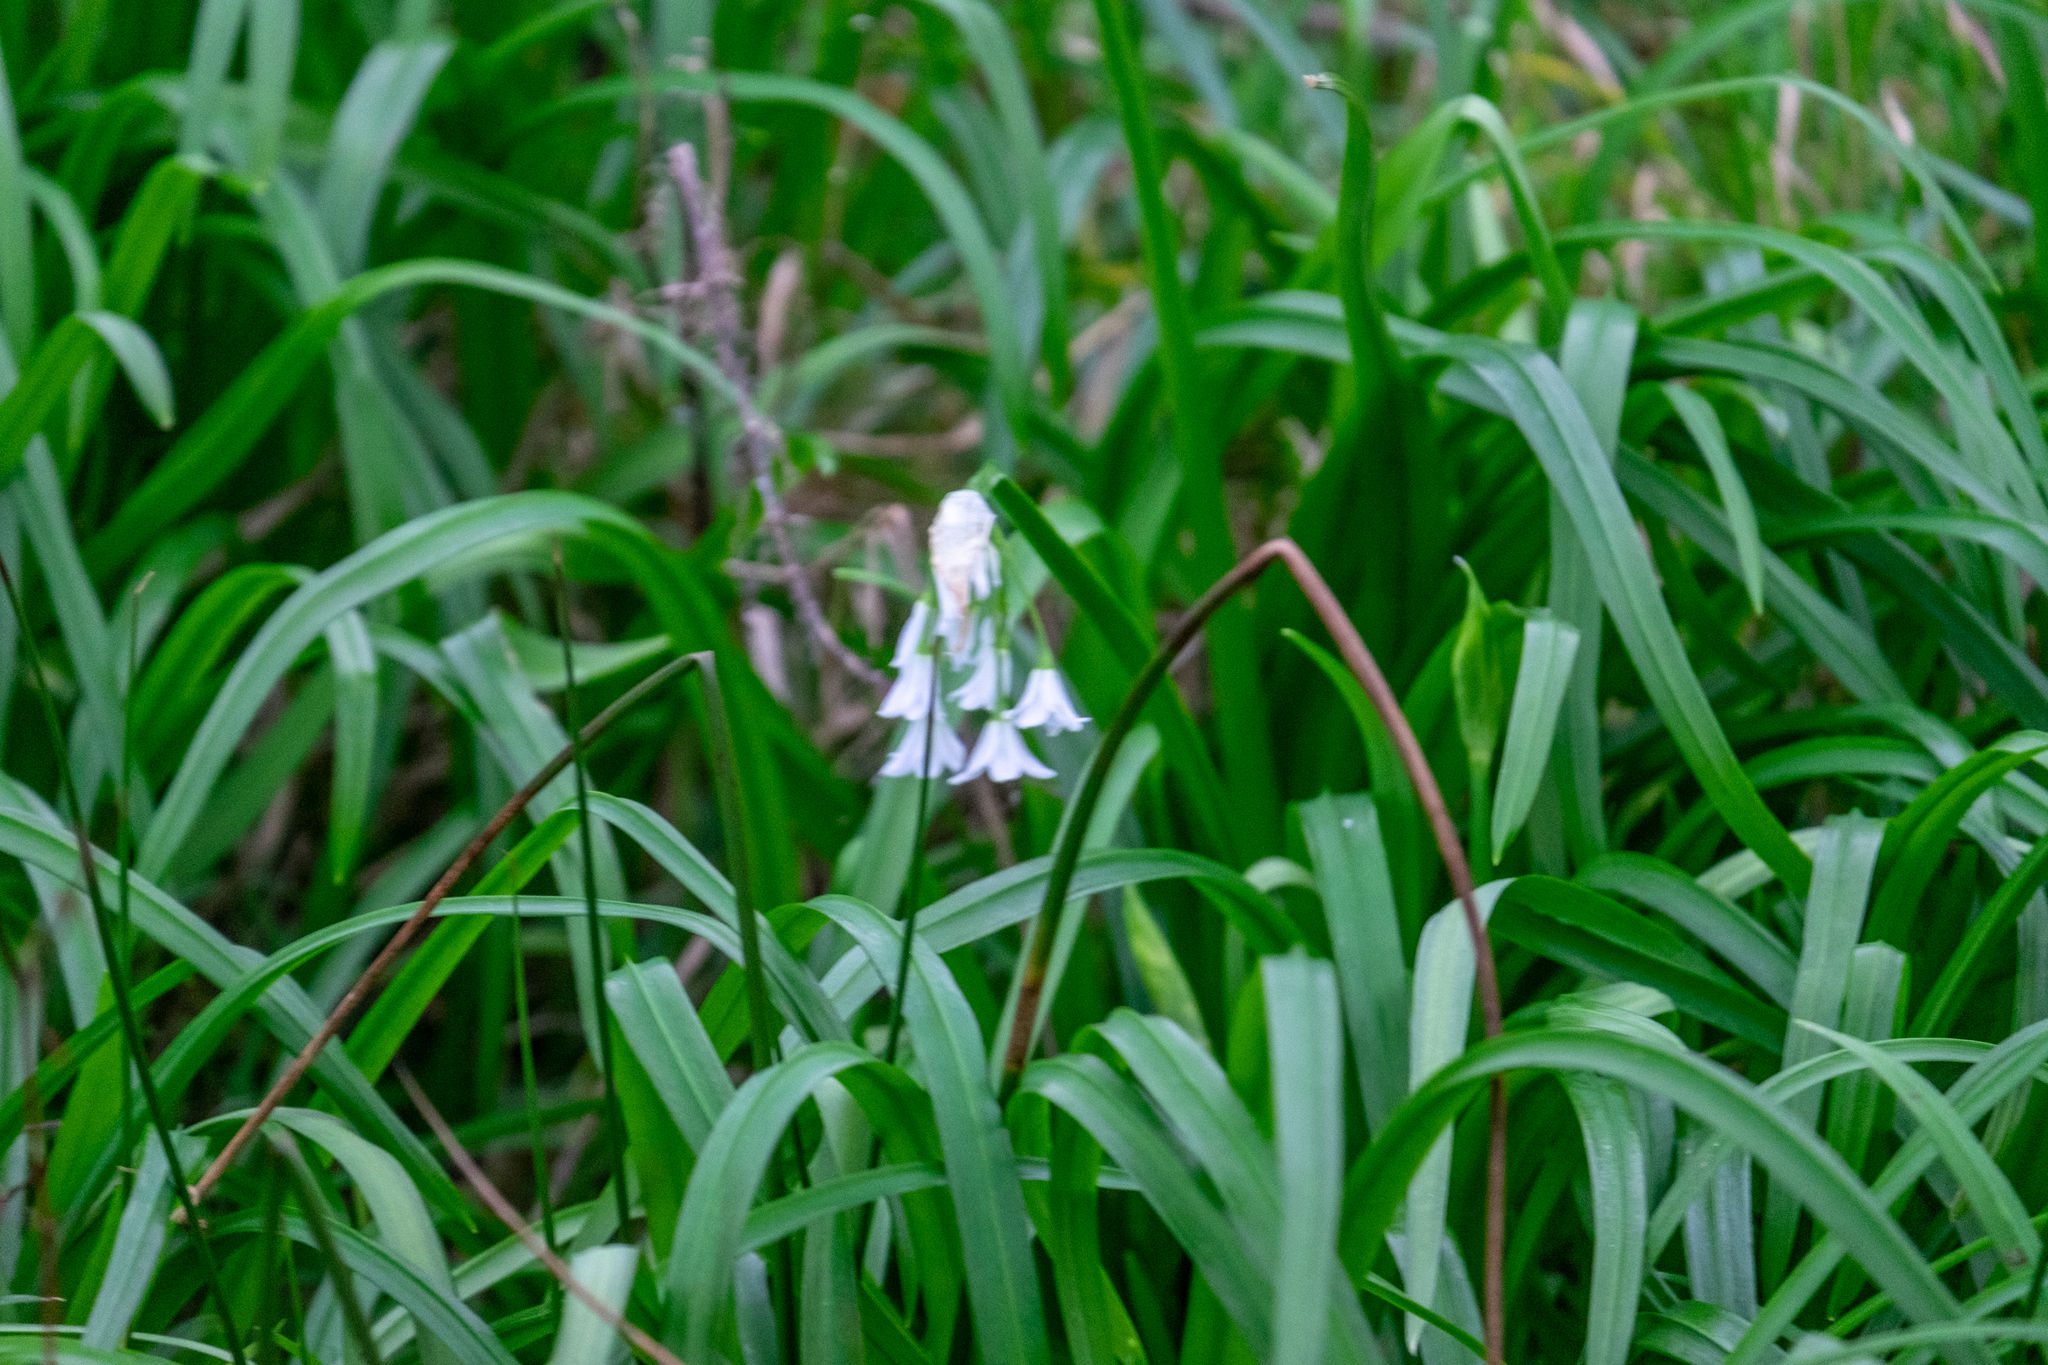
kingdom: Plantae
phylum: Tracheophyta
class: Liliopsida
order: Asparagales
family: Amaryllidaceae
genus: Allium
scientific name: Allium triquetrum
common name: Three-cornered garlic
